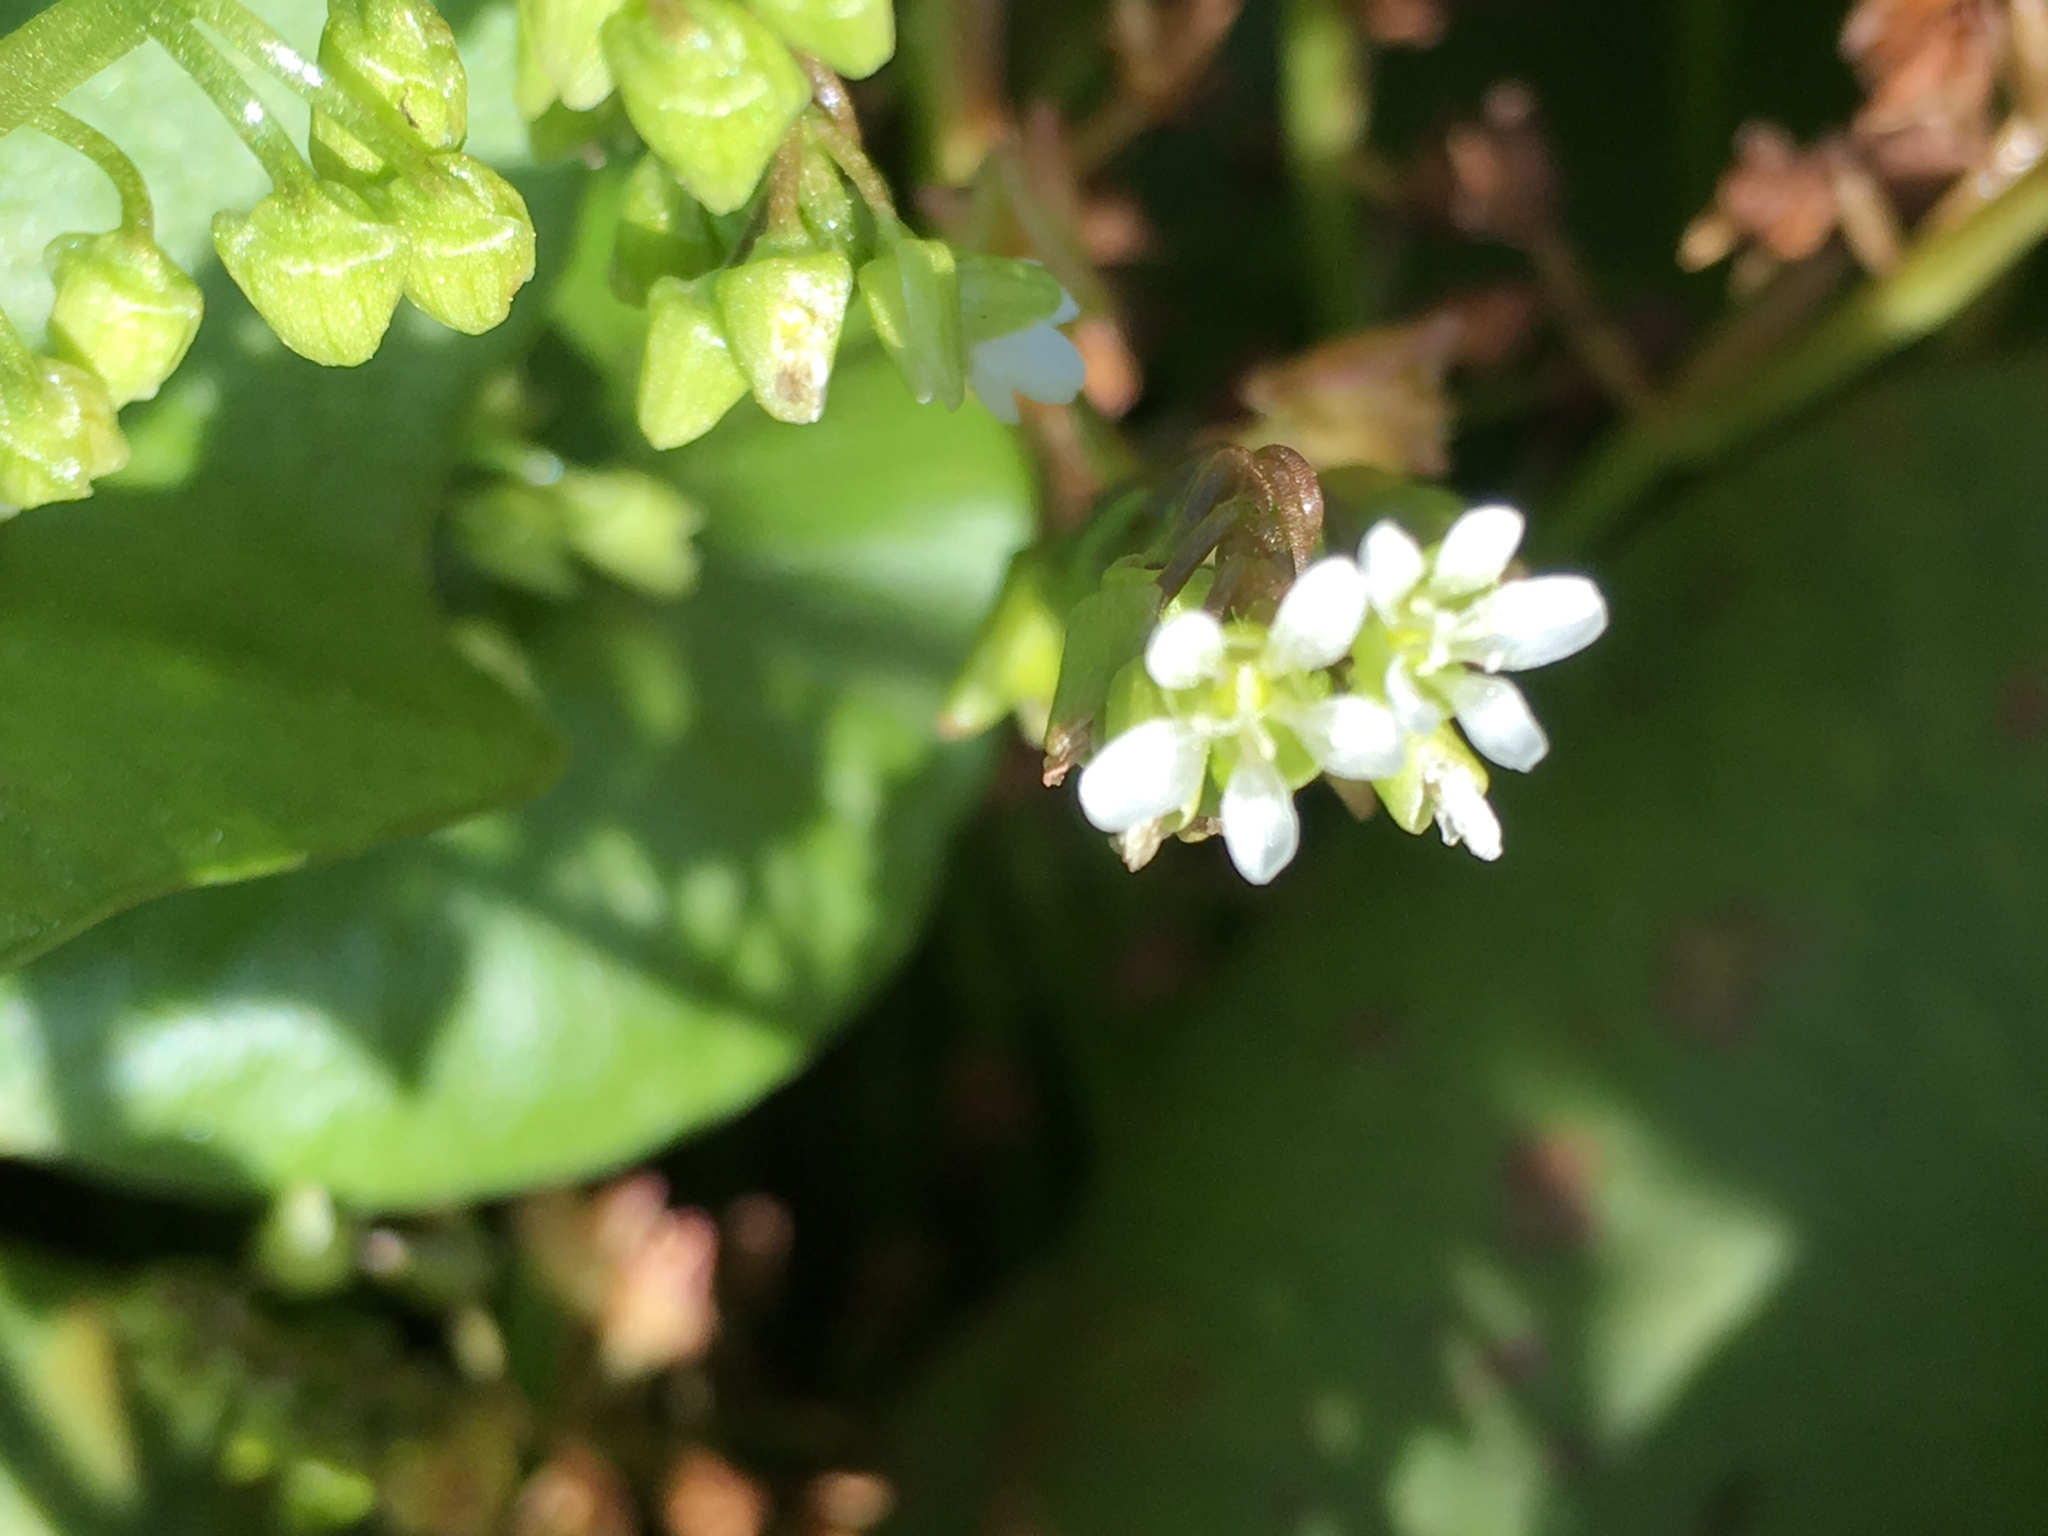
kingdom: Plantae
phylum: Tracheophyta
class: Magnoliopsida
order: Caryophyllales
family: Montiaceae
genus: Claytonia
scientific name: Claytonia perfoliata
